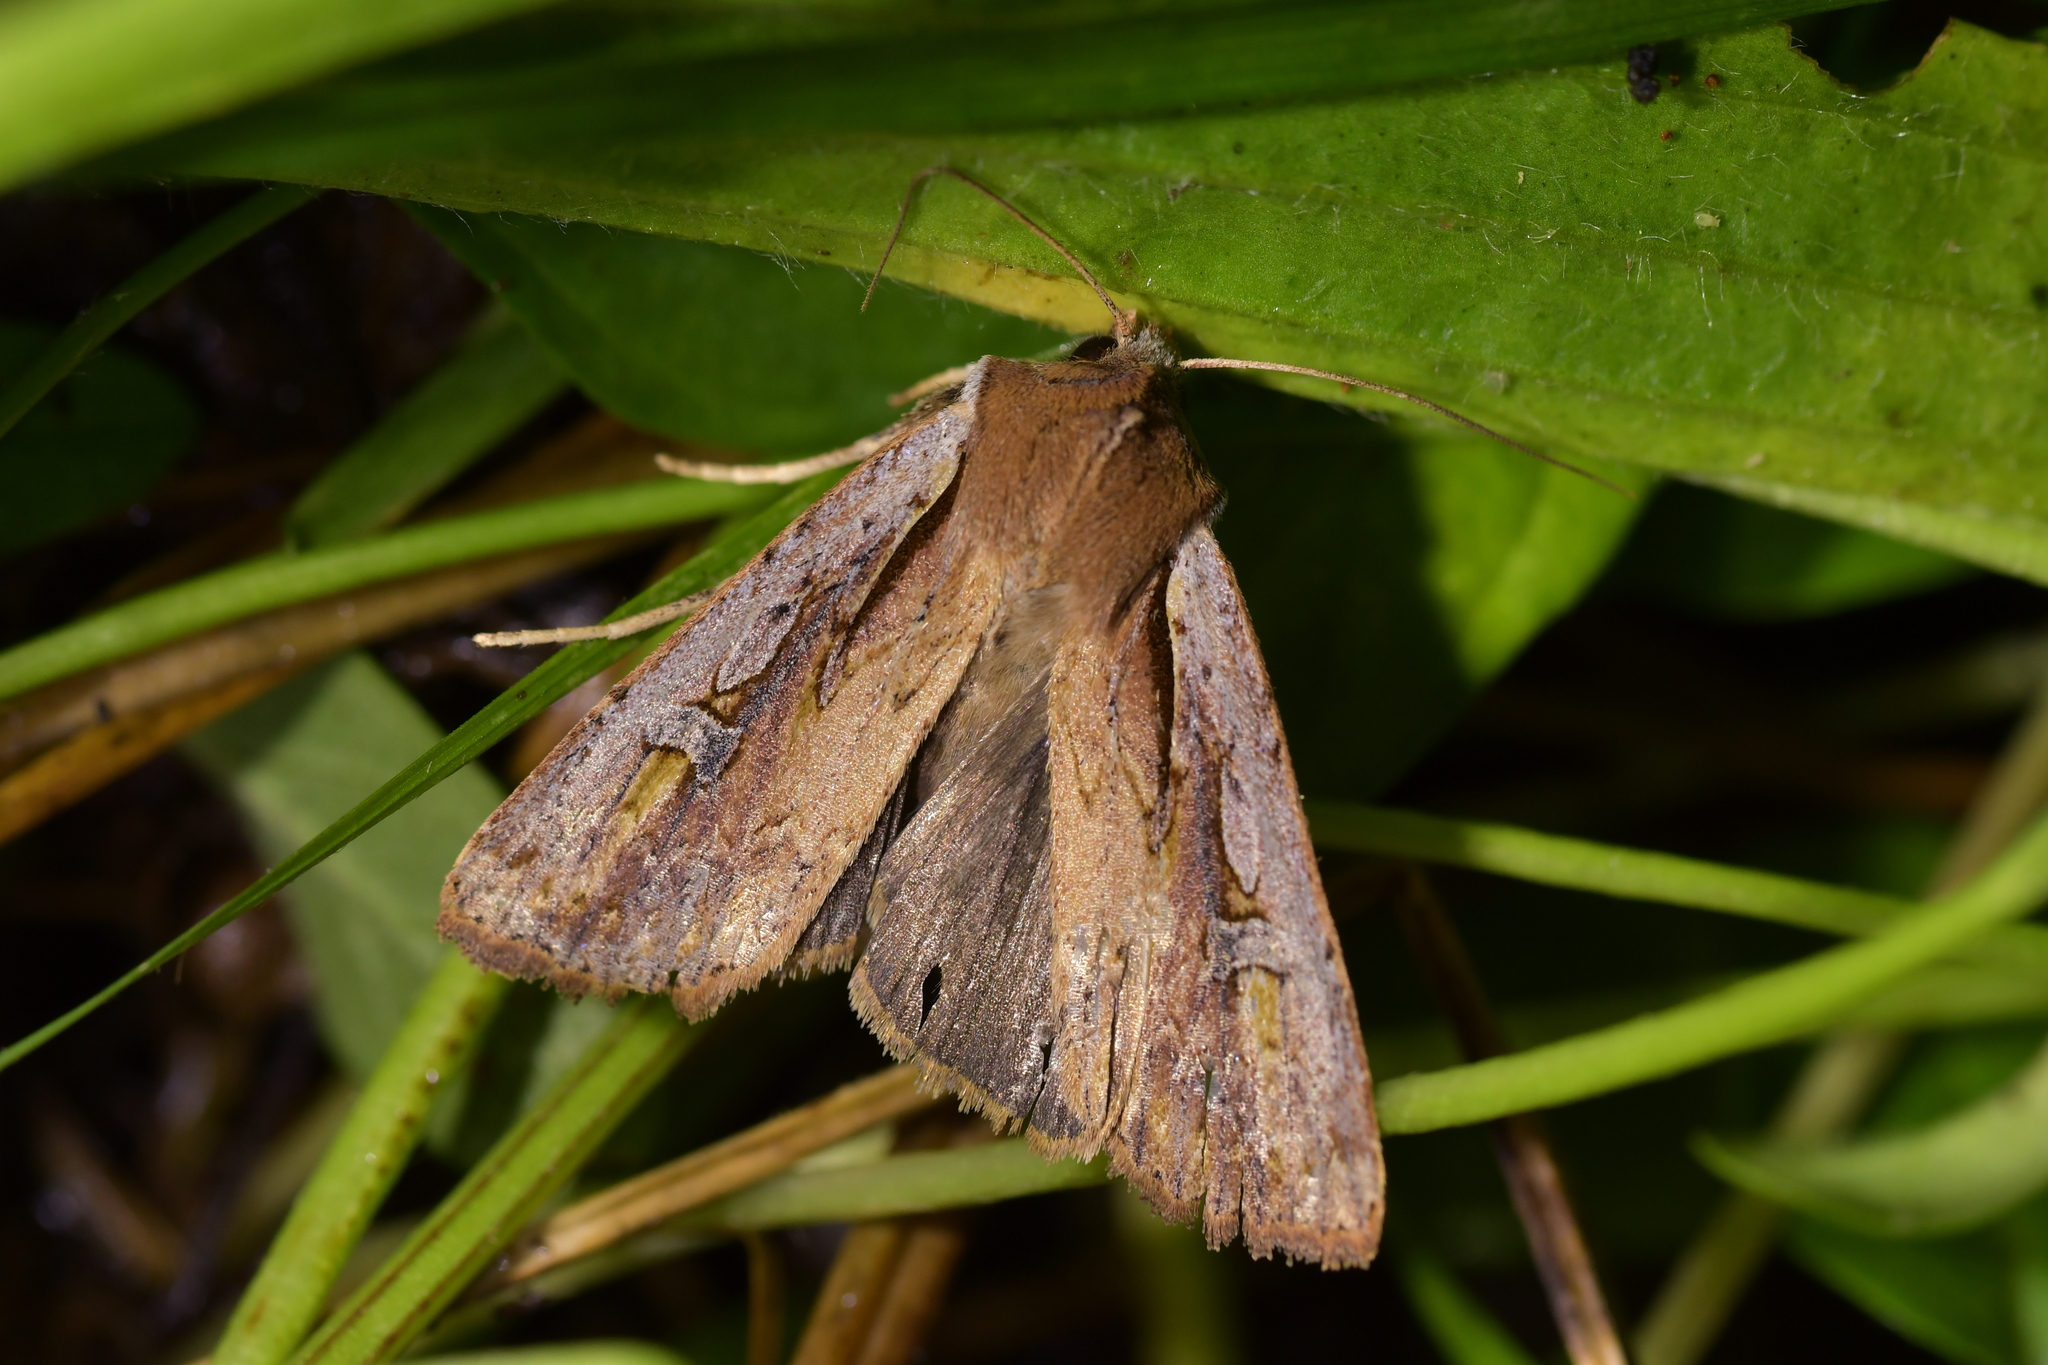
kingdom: Animalia
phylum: Arthropoda
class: Insecta
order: Lepidoptera
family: Noctuidae
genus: Ichneutica
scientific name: Ichneutica atristriga
